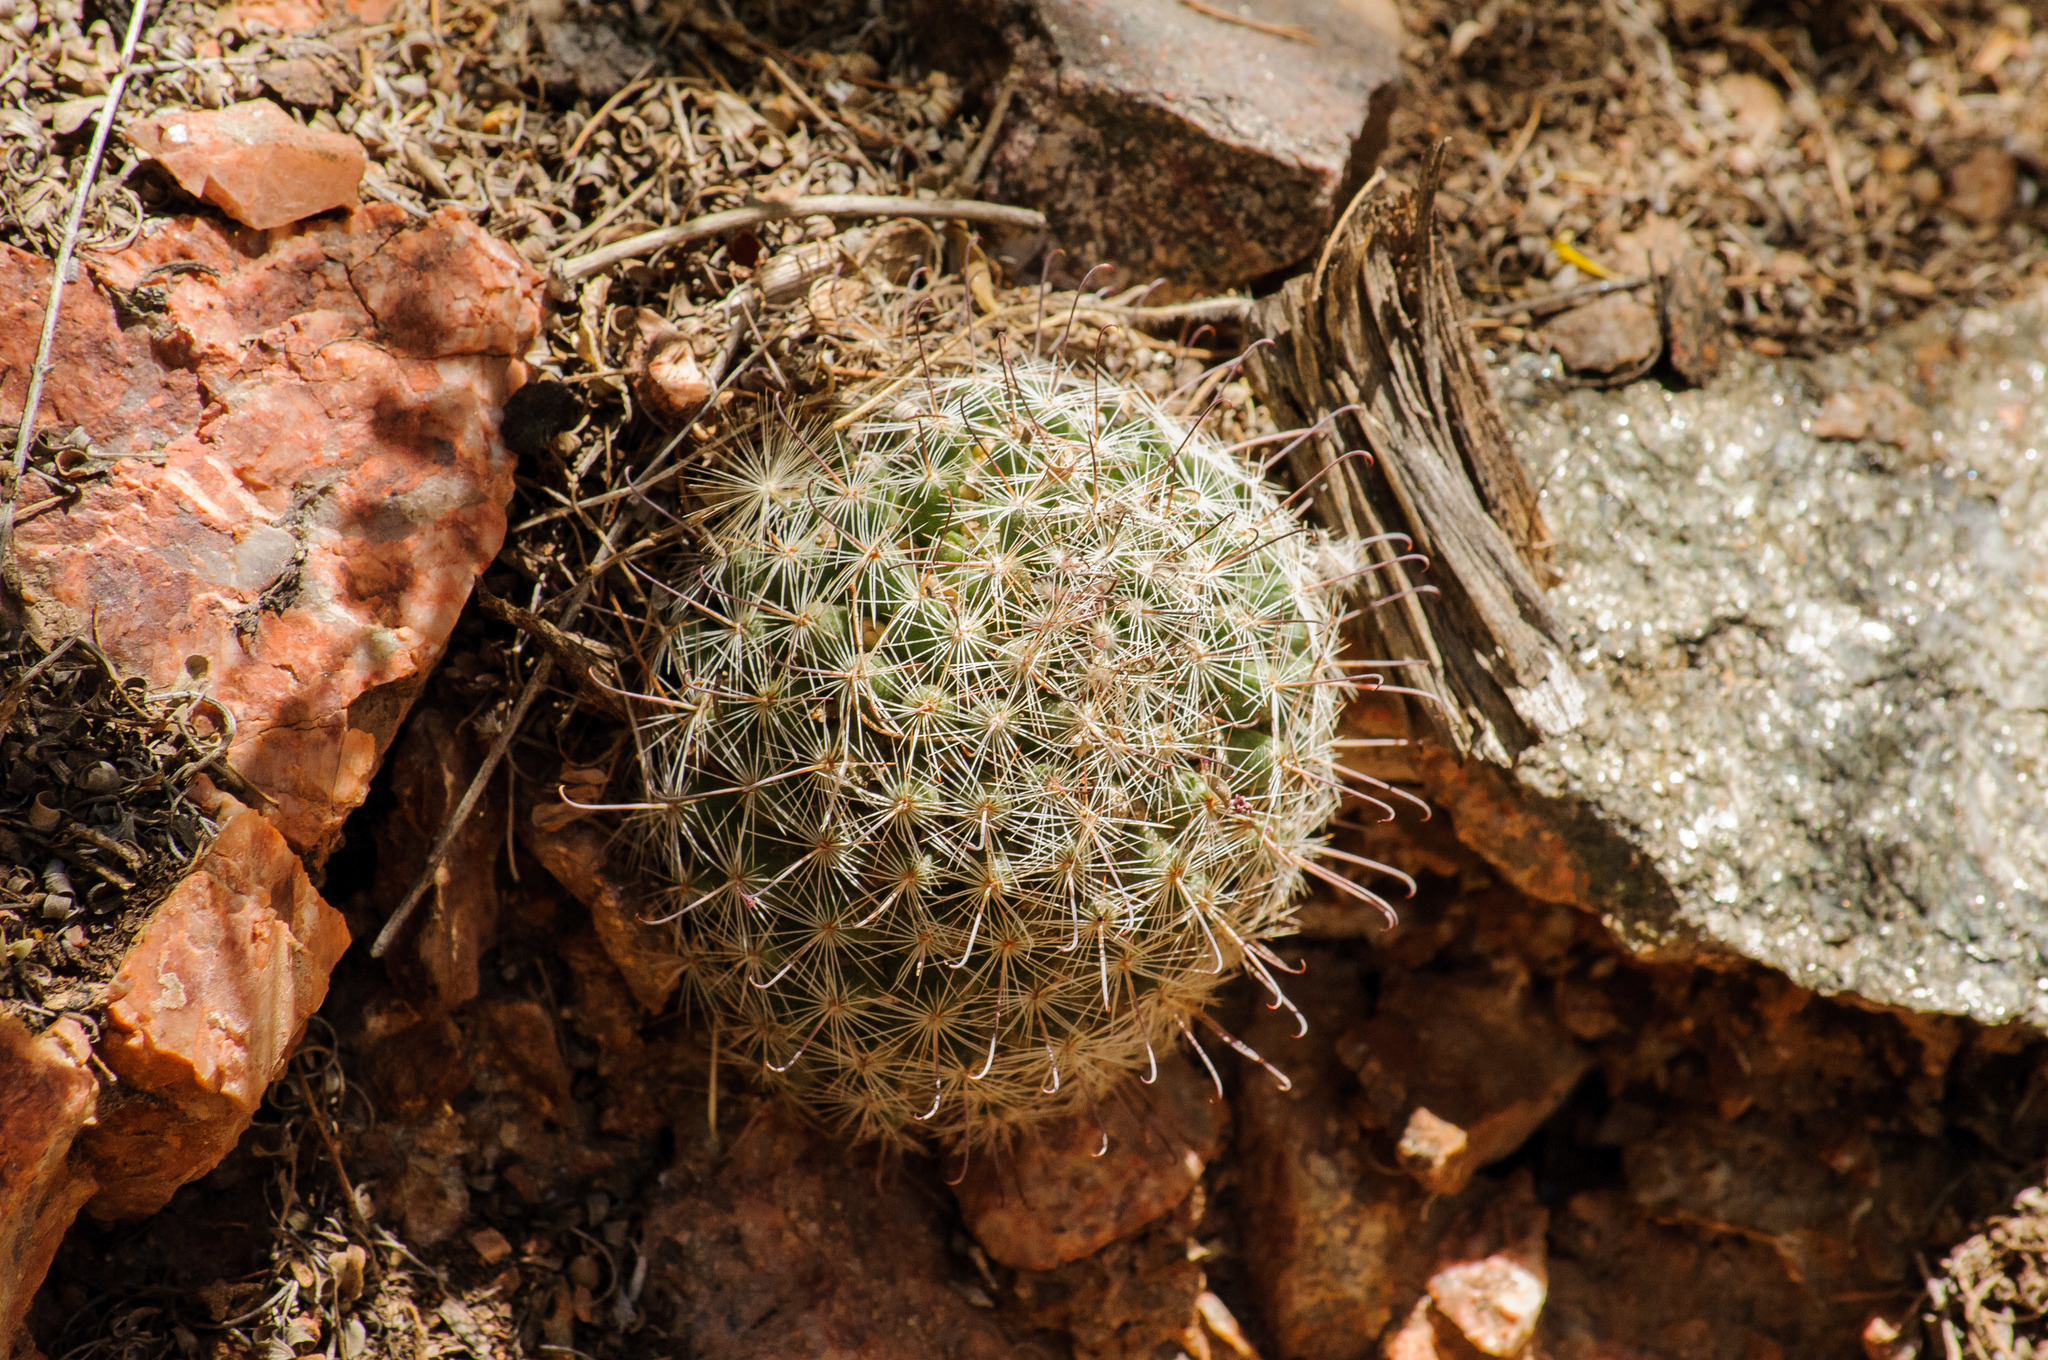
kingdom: Plantae
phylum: Tracheophyta
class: Magnoliopsida
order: Caryophyllales
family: Cactaceae
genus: Cochemiea
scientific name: Cochemiea grahamii
